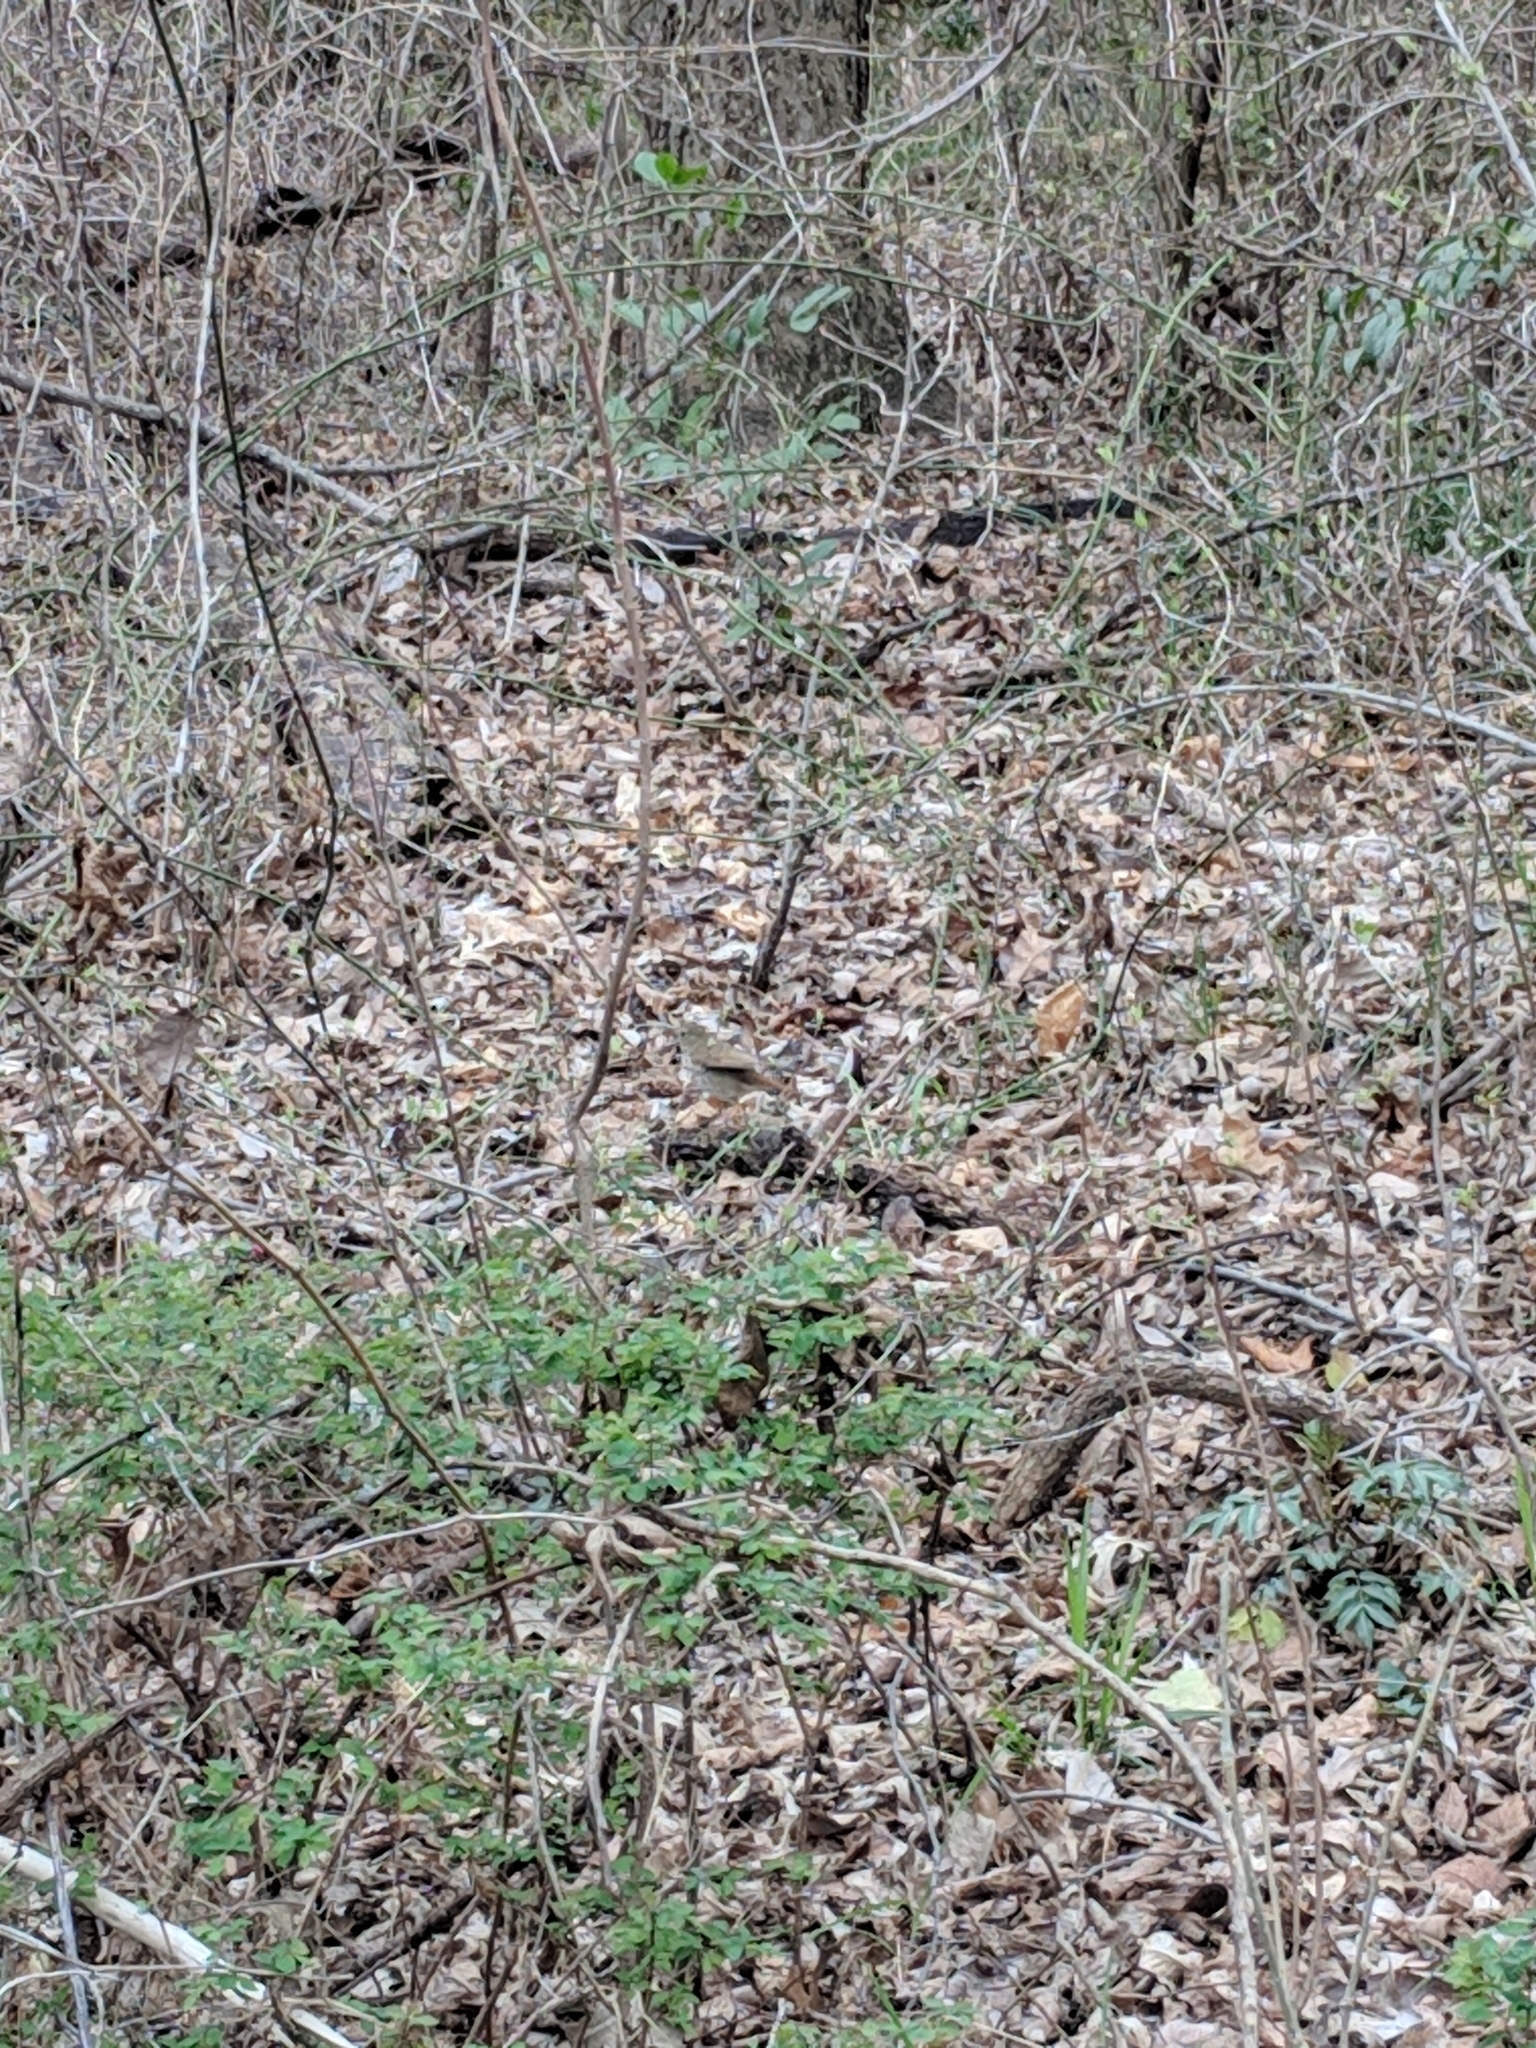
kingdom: Animalia
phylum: Chordata
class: Aves
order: Passeriformes
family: Turdidae
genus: Catharus
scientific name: Catharus guttatus
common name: Hermit thrush
